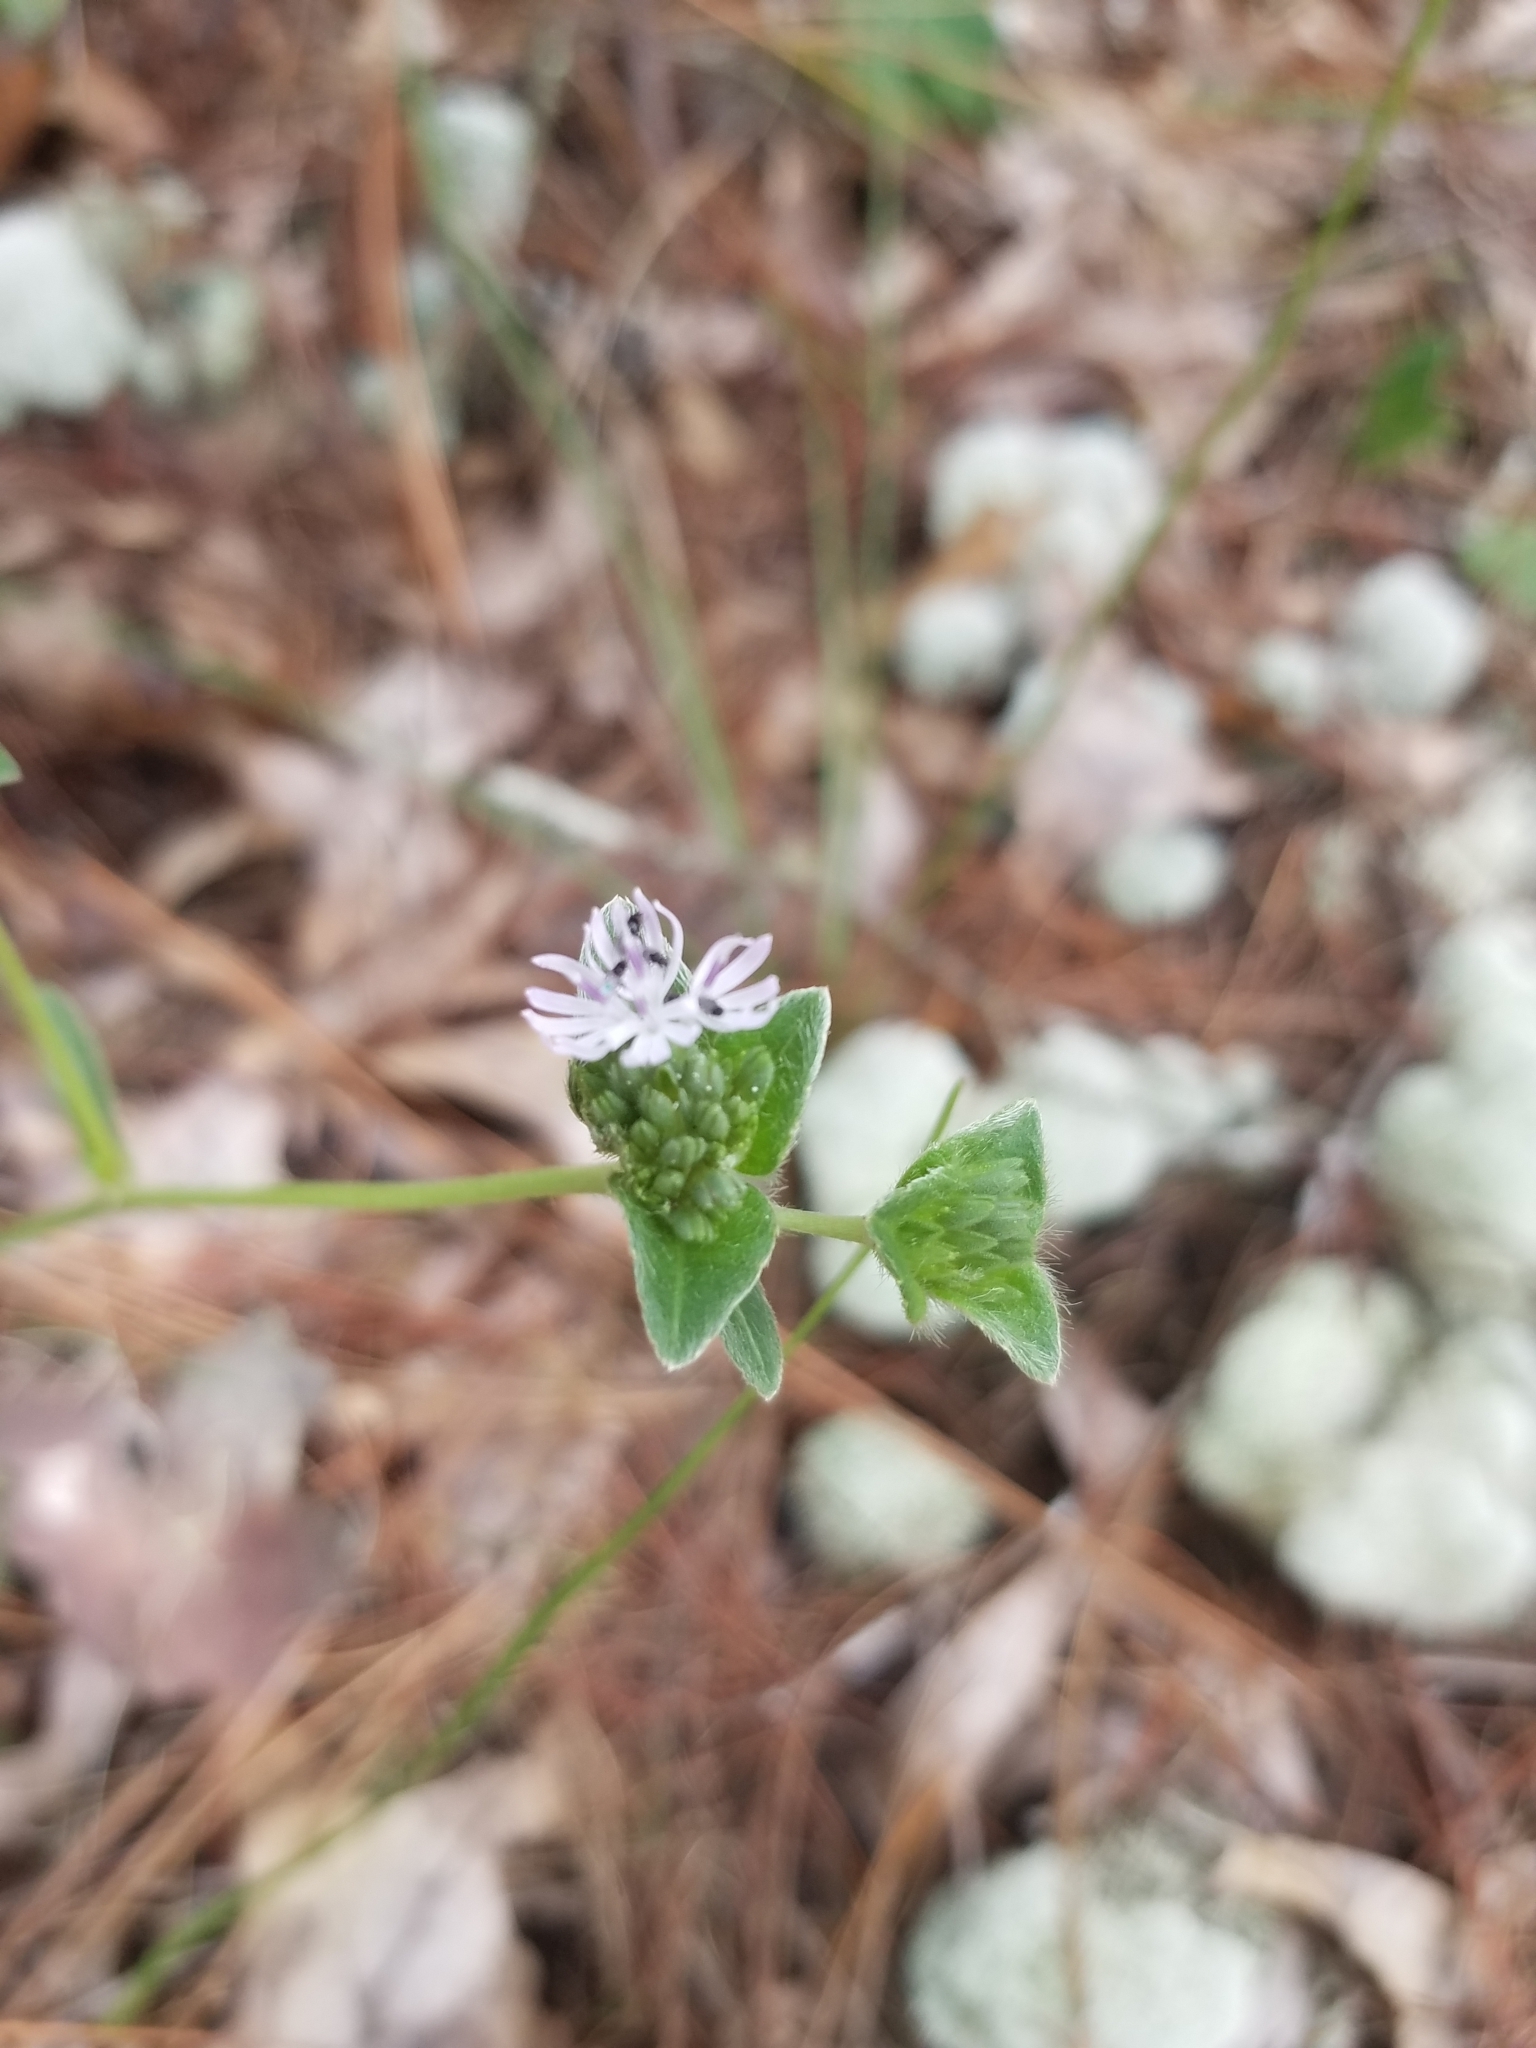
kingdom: Plantae
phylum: Tracheophyta
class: Magnoliopsida
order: Asterales
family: Asteraceae
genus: Elephantopus
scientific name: Elephantopus nudatus
